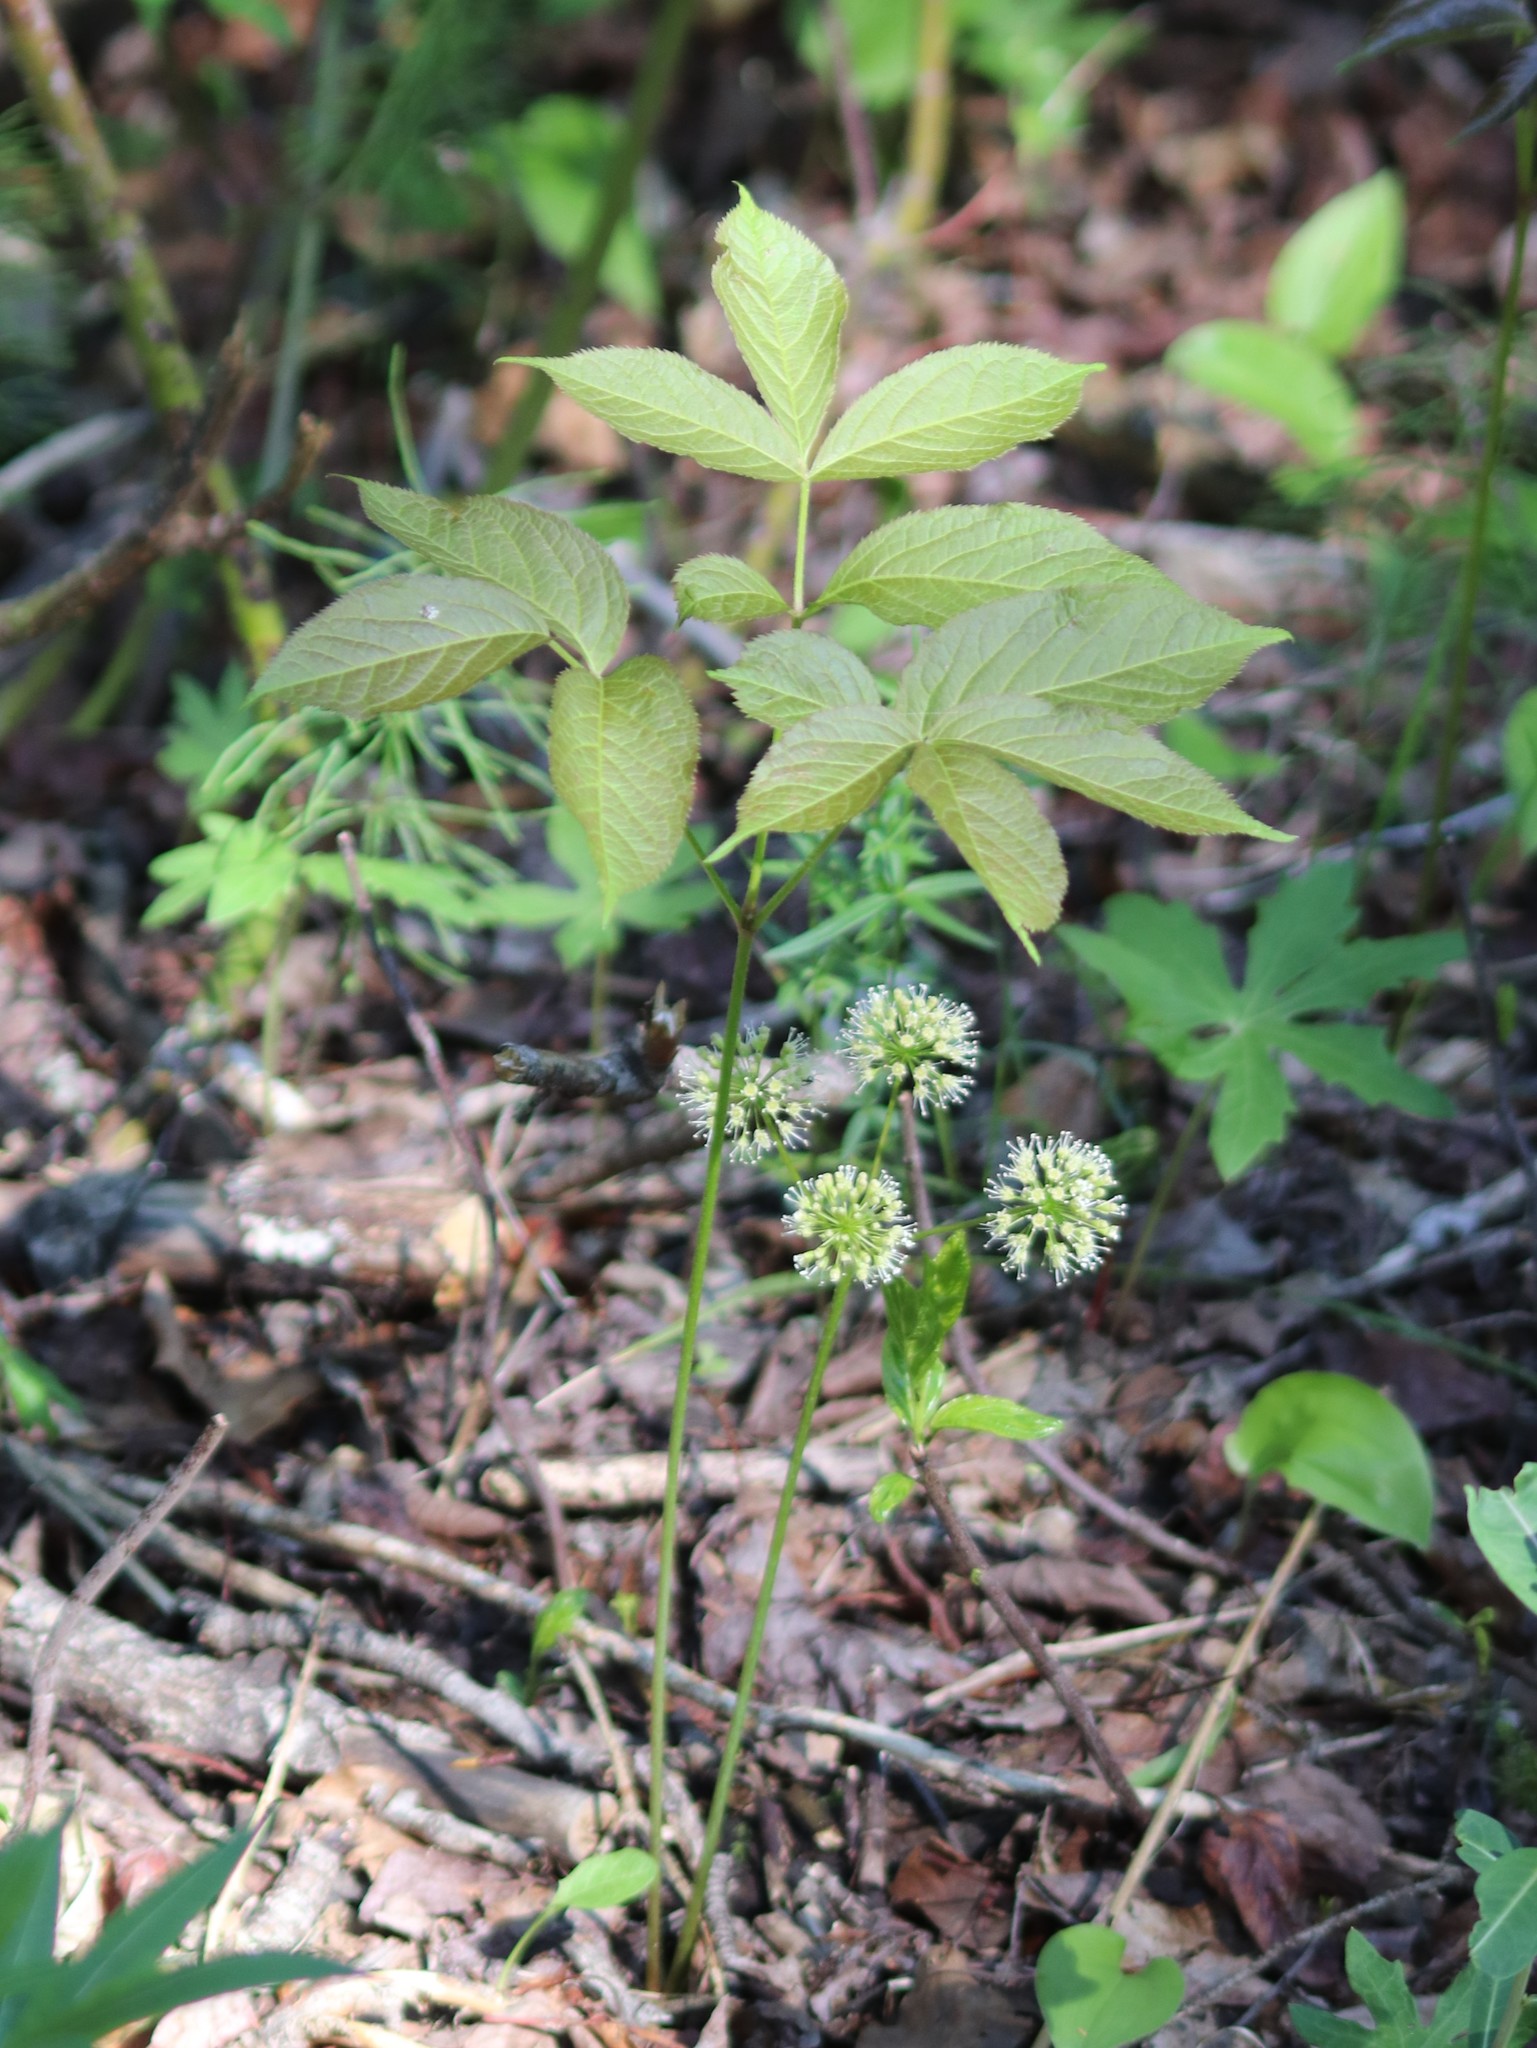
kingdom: Plantae
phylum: Tracheophyta
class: Magnoliopsida
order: Apiales
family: Araliaceae
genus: Aralia
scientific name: Aralia nudicaulis
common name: Wild sarsaparilla
